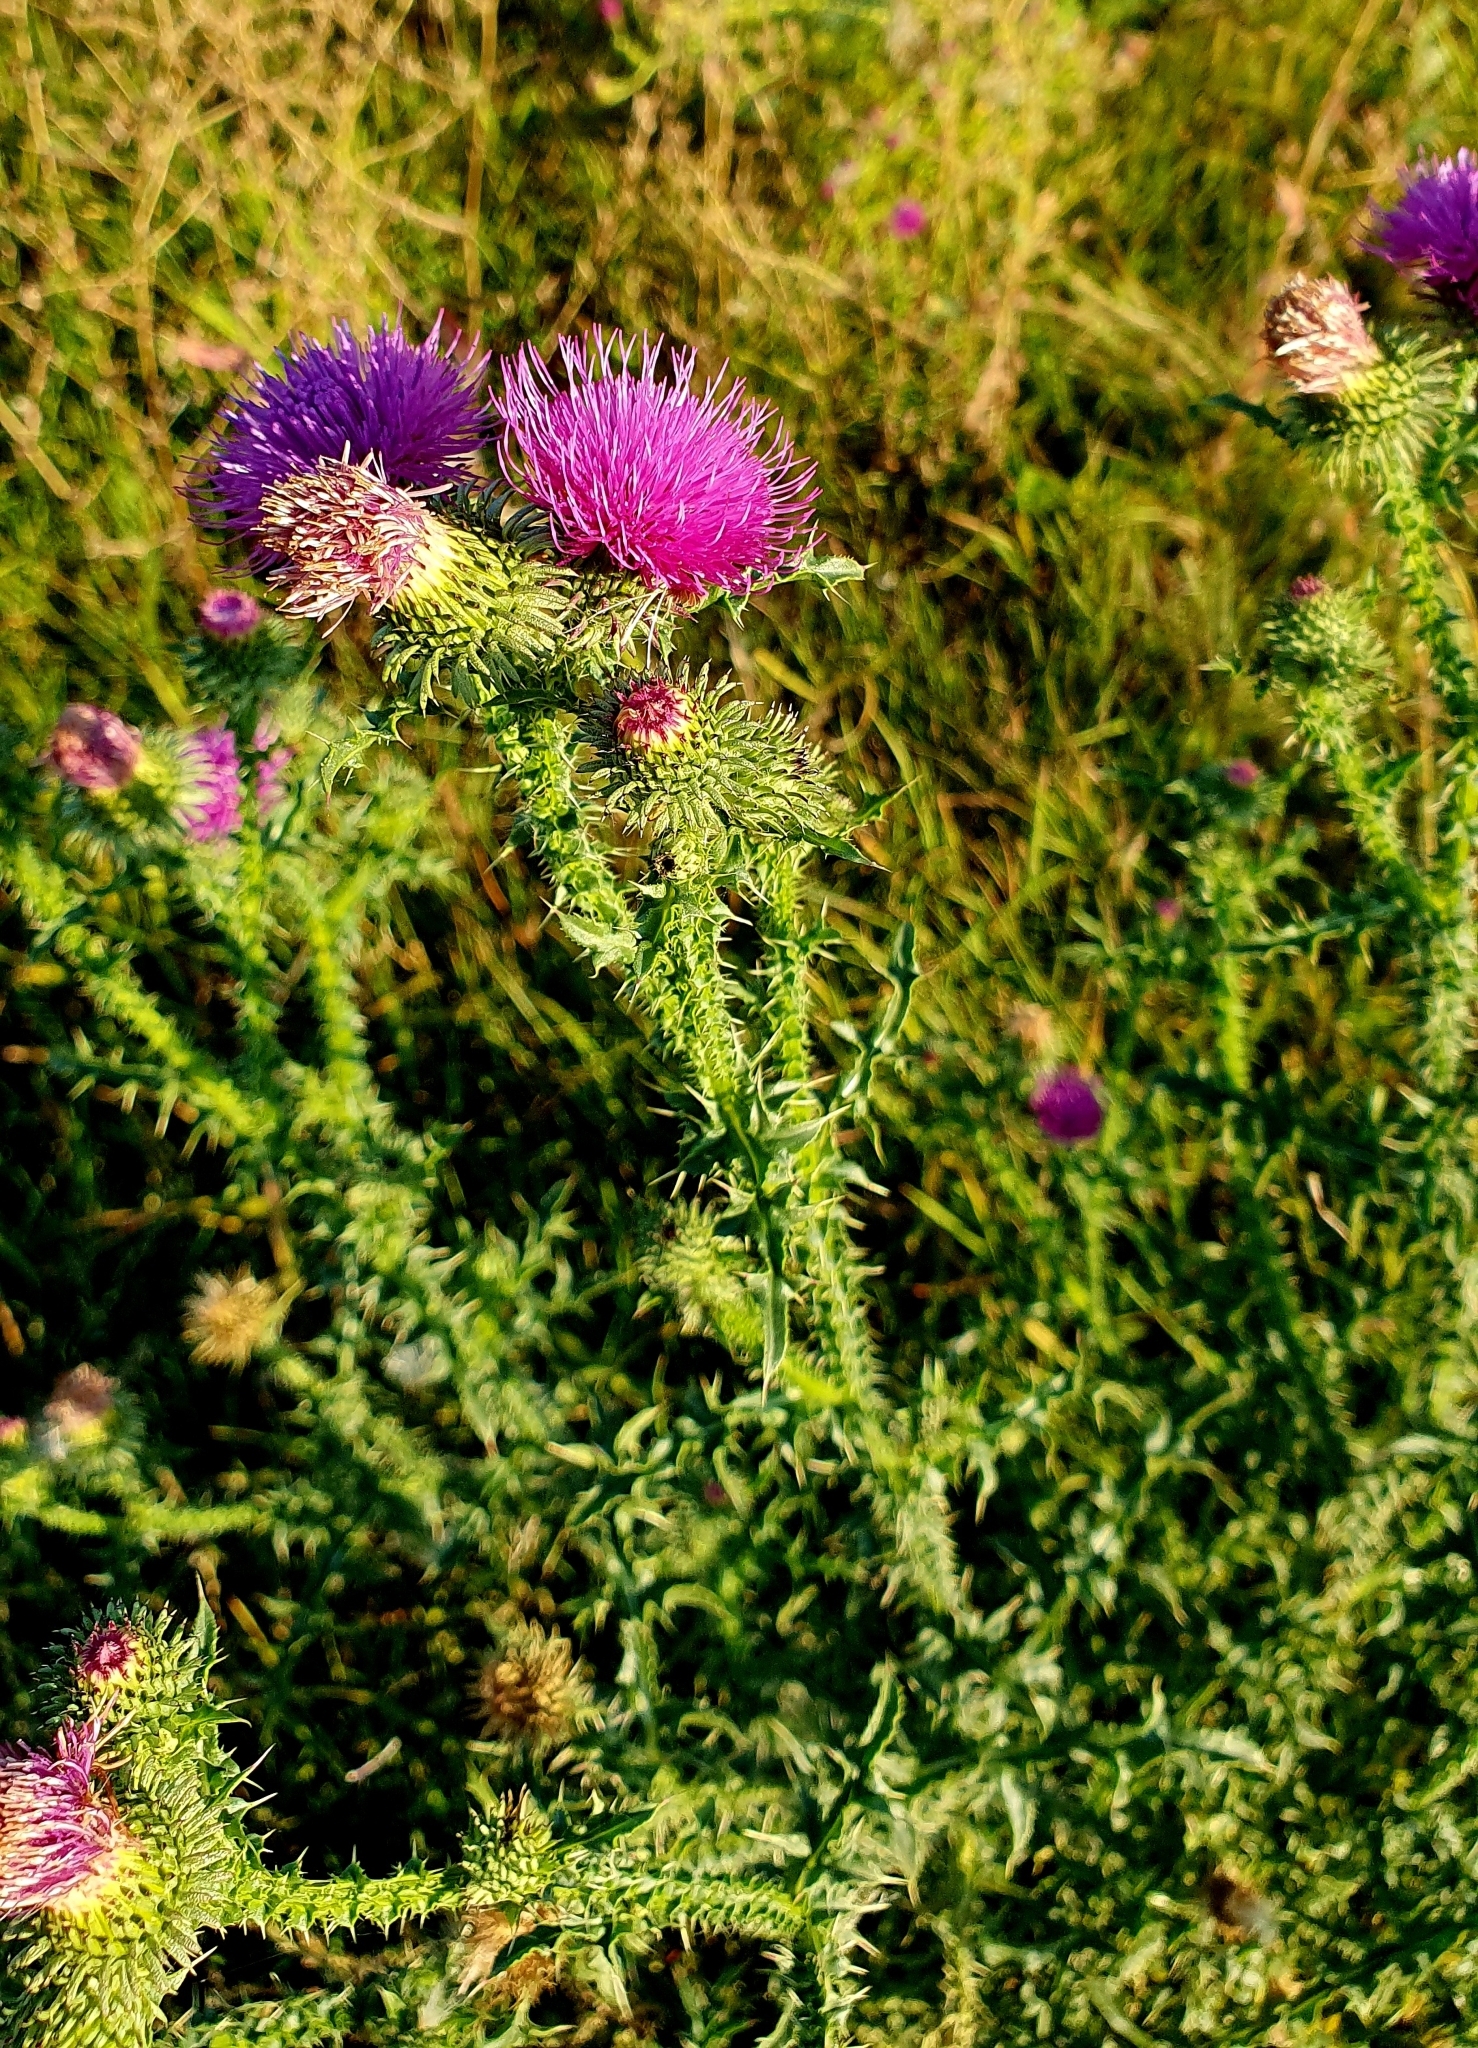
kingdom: Plantae
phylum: Tracheophyta
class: Magnoliopsida
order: Asterales
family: Asteraceae
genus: Carduus
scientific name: Carduus acanthoides
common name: Plumeless thistle
